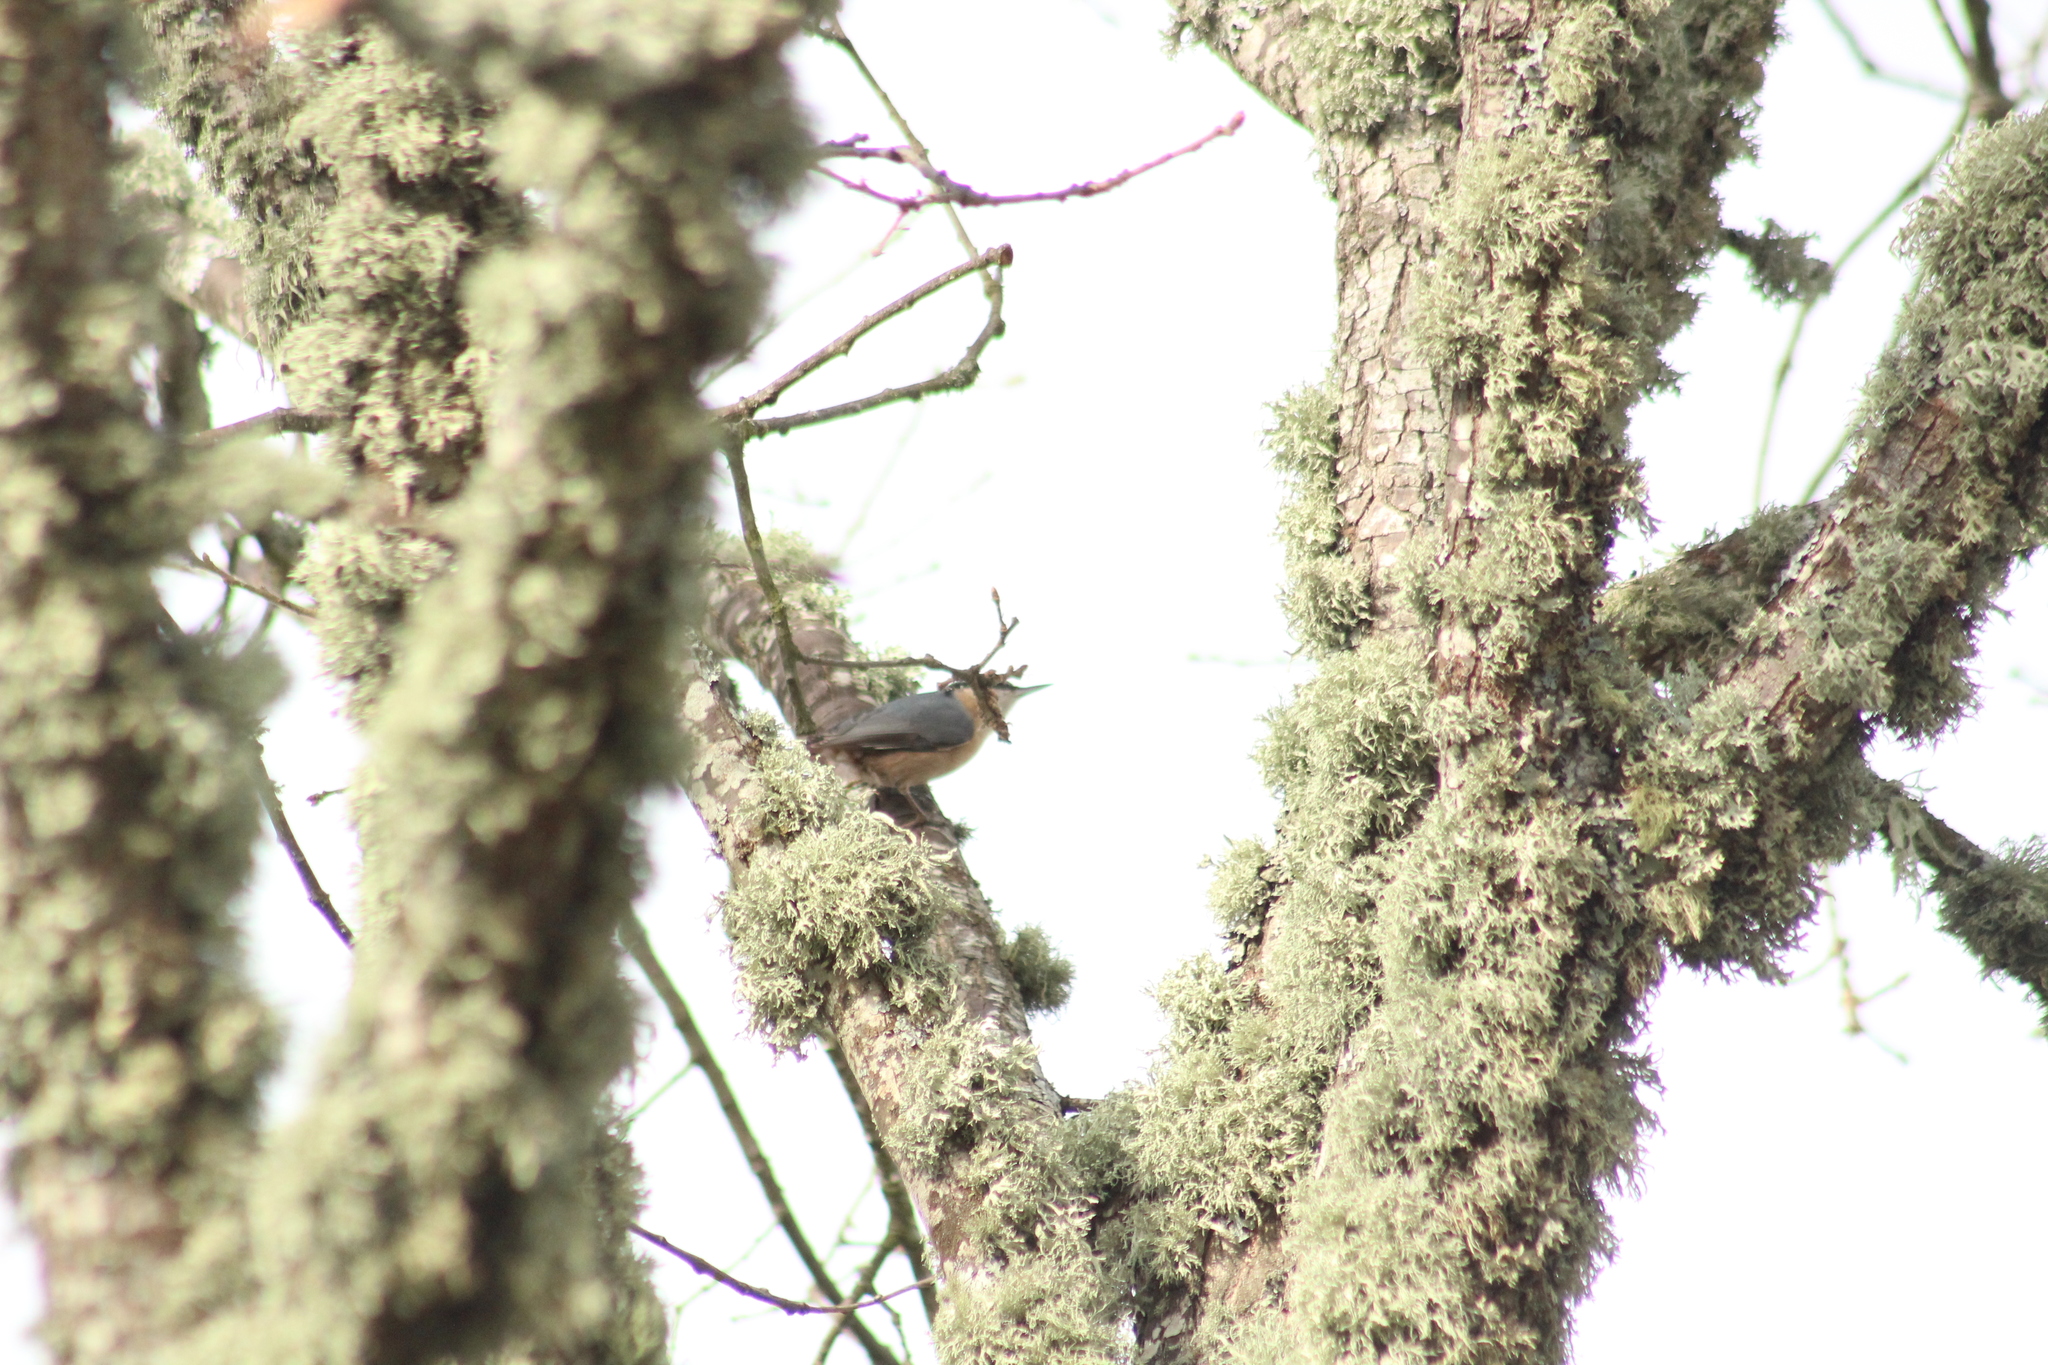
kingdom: Animalia
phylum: Chordata
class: Aves
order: Passeriformes
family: Sittidae
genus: Sitta
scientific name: Sitta europaea
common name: Eurasian nuthatch
